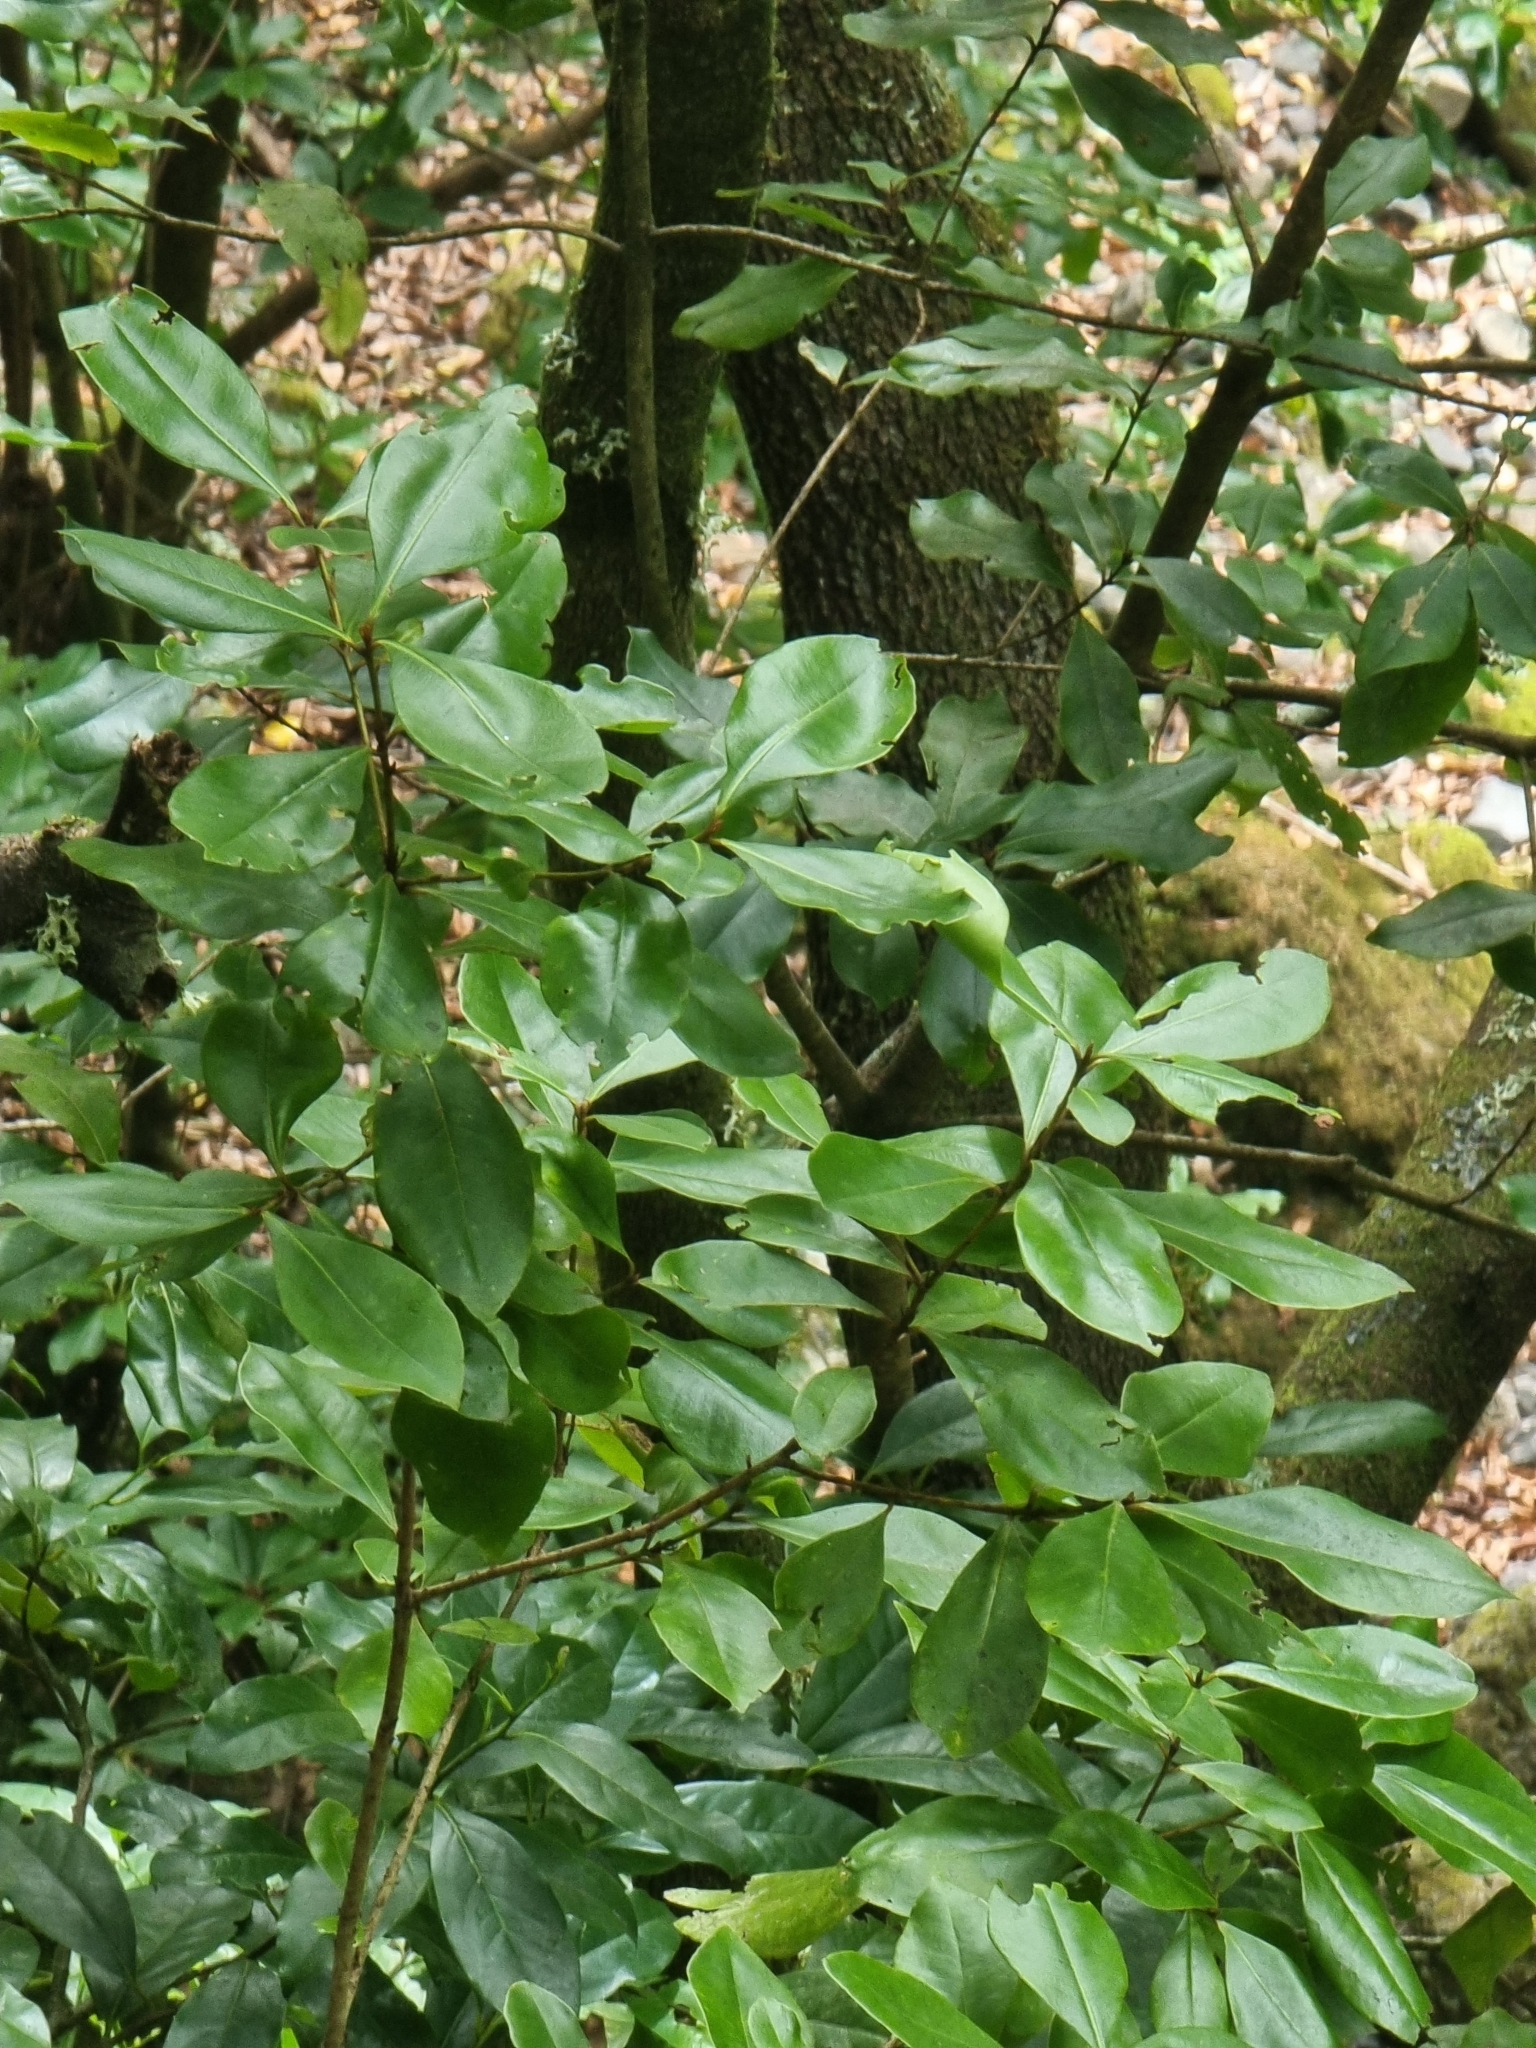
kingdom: Plantae
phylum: Tracheophyta
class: Magnoliopsida
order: Ericales
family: Primulaceae
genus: Heberdenia
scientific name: Heberdenia excelsa
